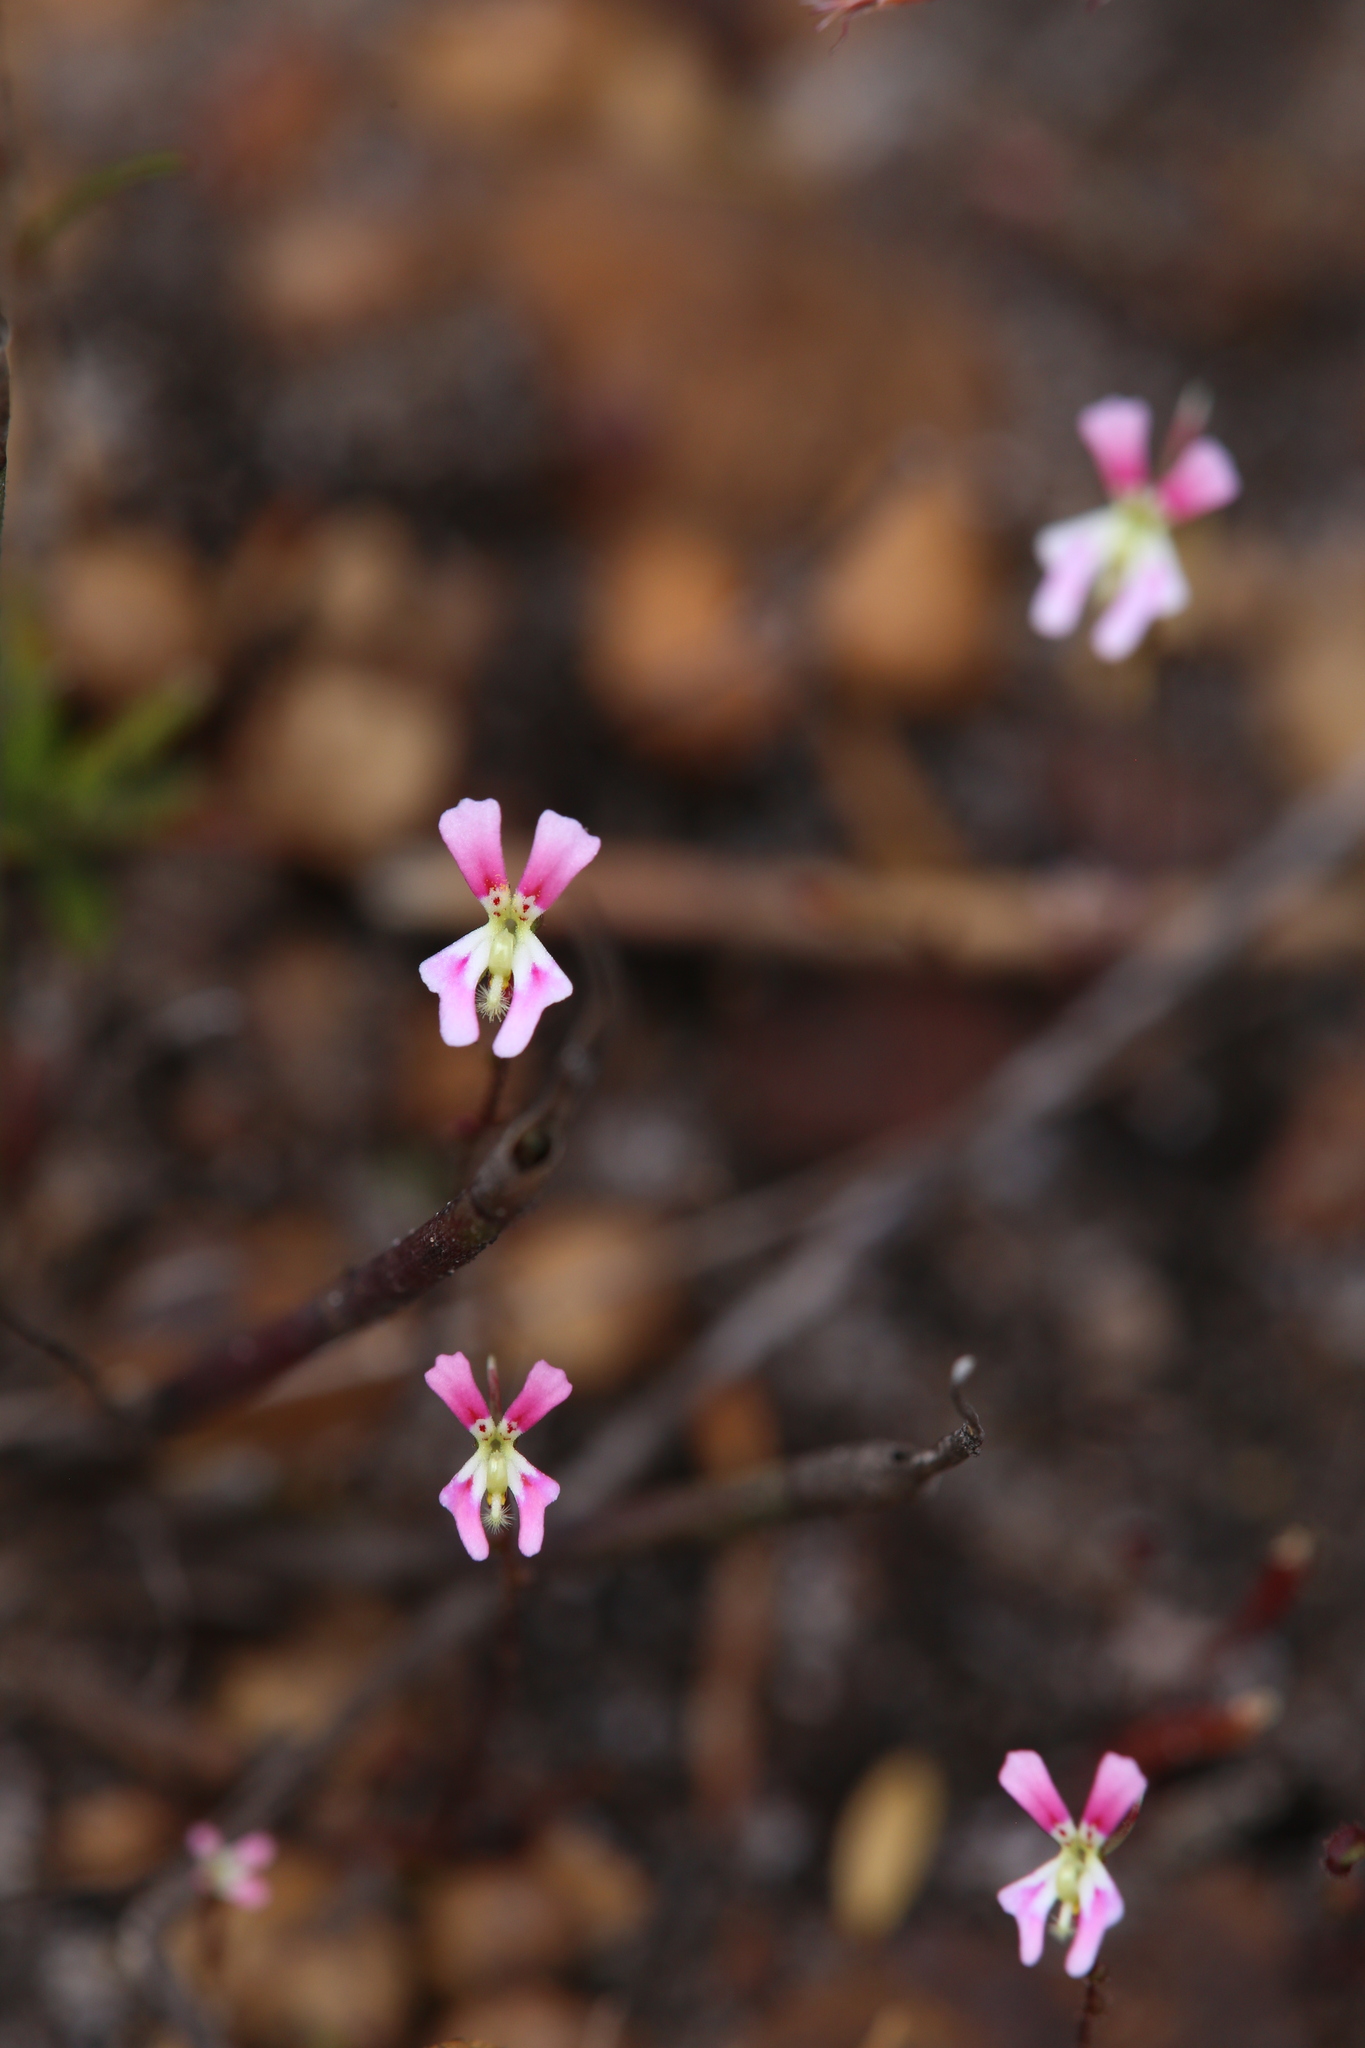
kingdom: Plantae
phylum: Tracheophyta
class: Magnoliopsida
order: Asterales
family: Stylidiaceae
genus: Stylidium
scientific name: Stylidium calcaratum
